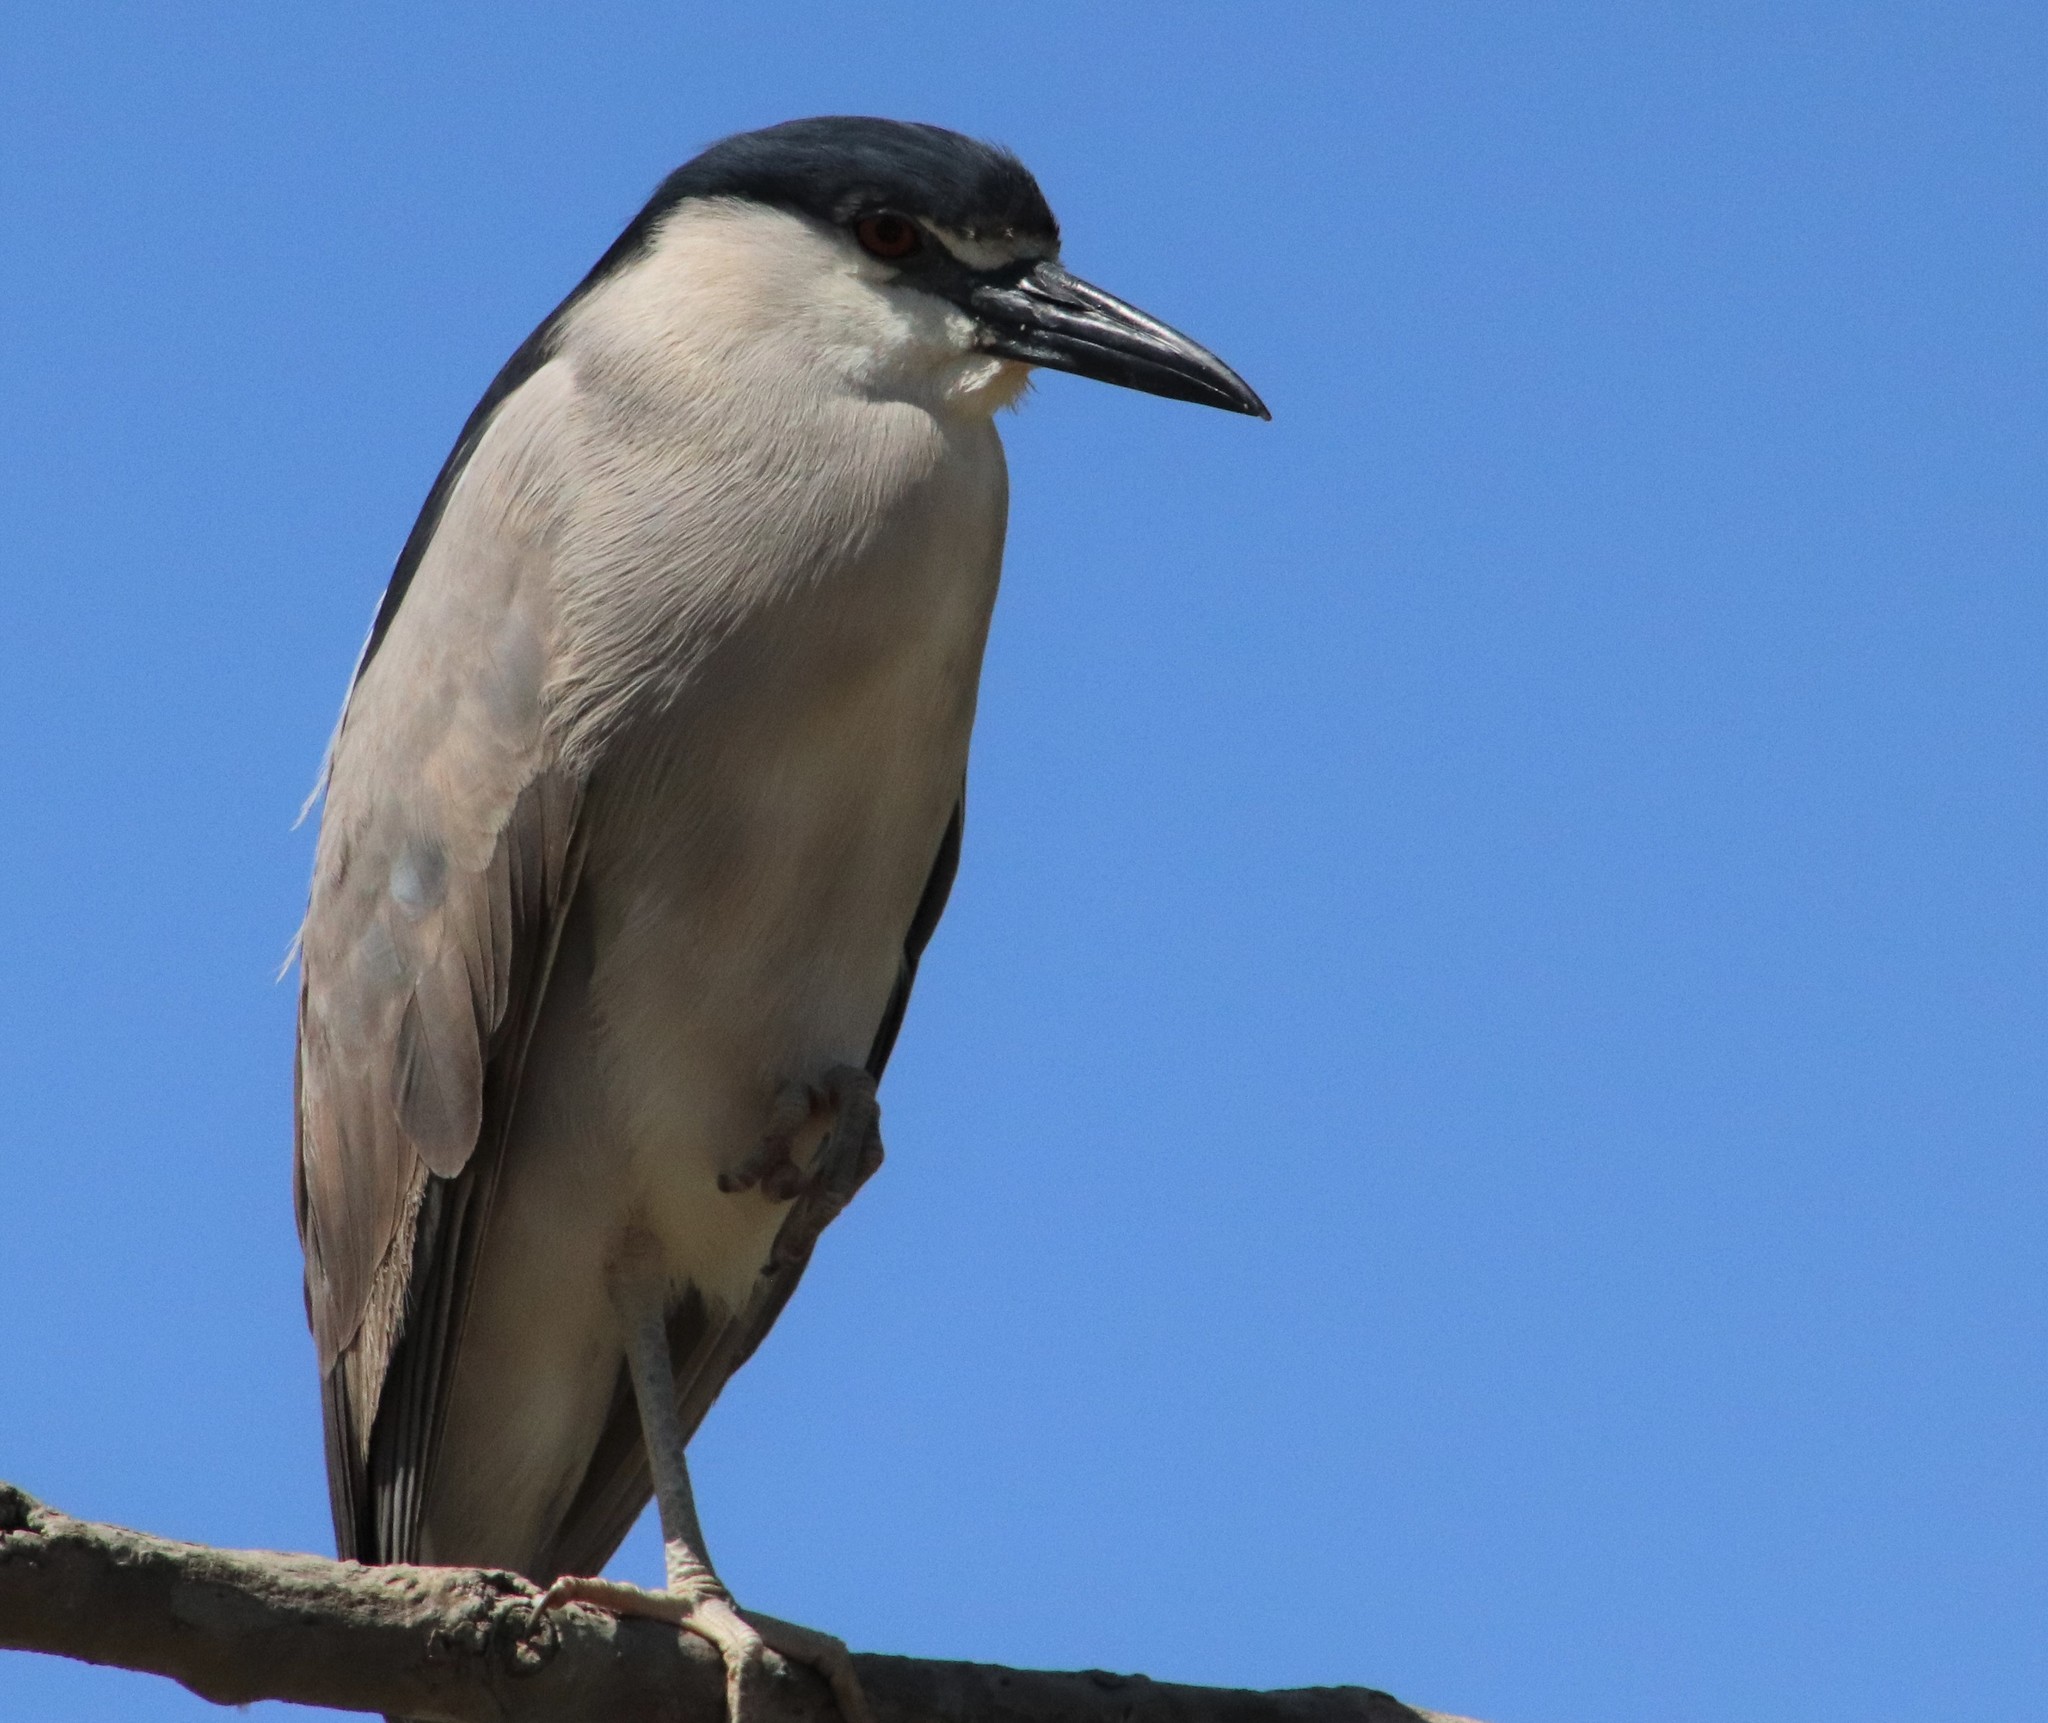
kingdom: Animalia
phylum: Chordata
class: Aves
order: Pelecaniformes
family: Ardeidae
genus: Nycticorax
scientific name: Nycticorax nycticorax
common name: Black-crowned night heron
